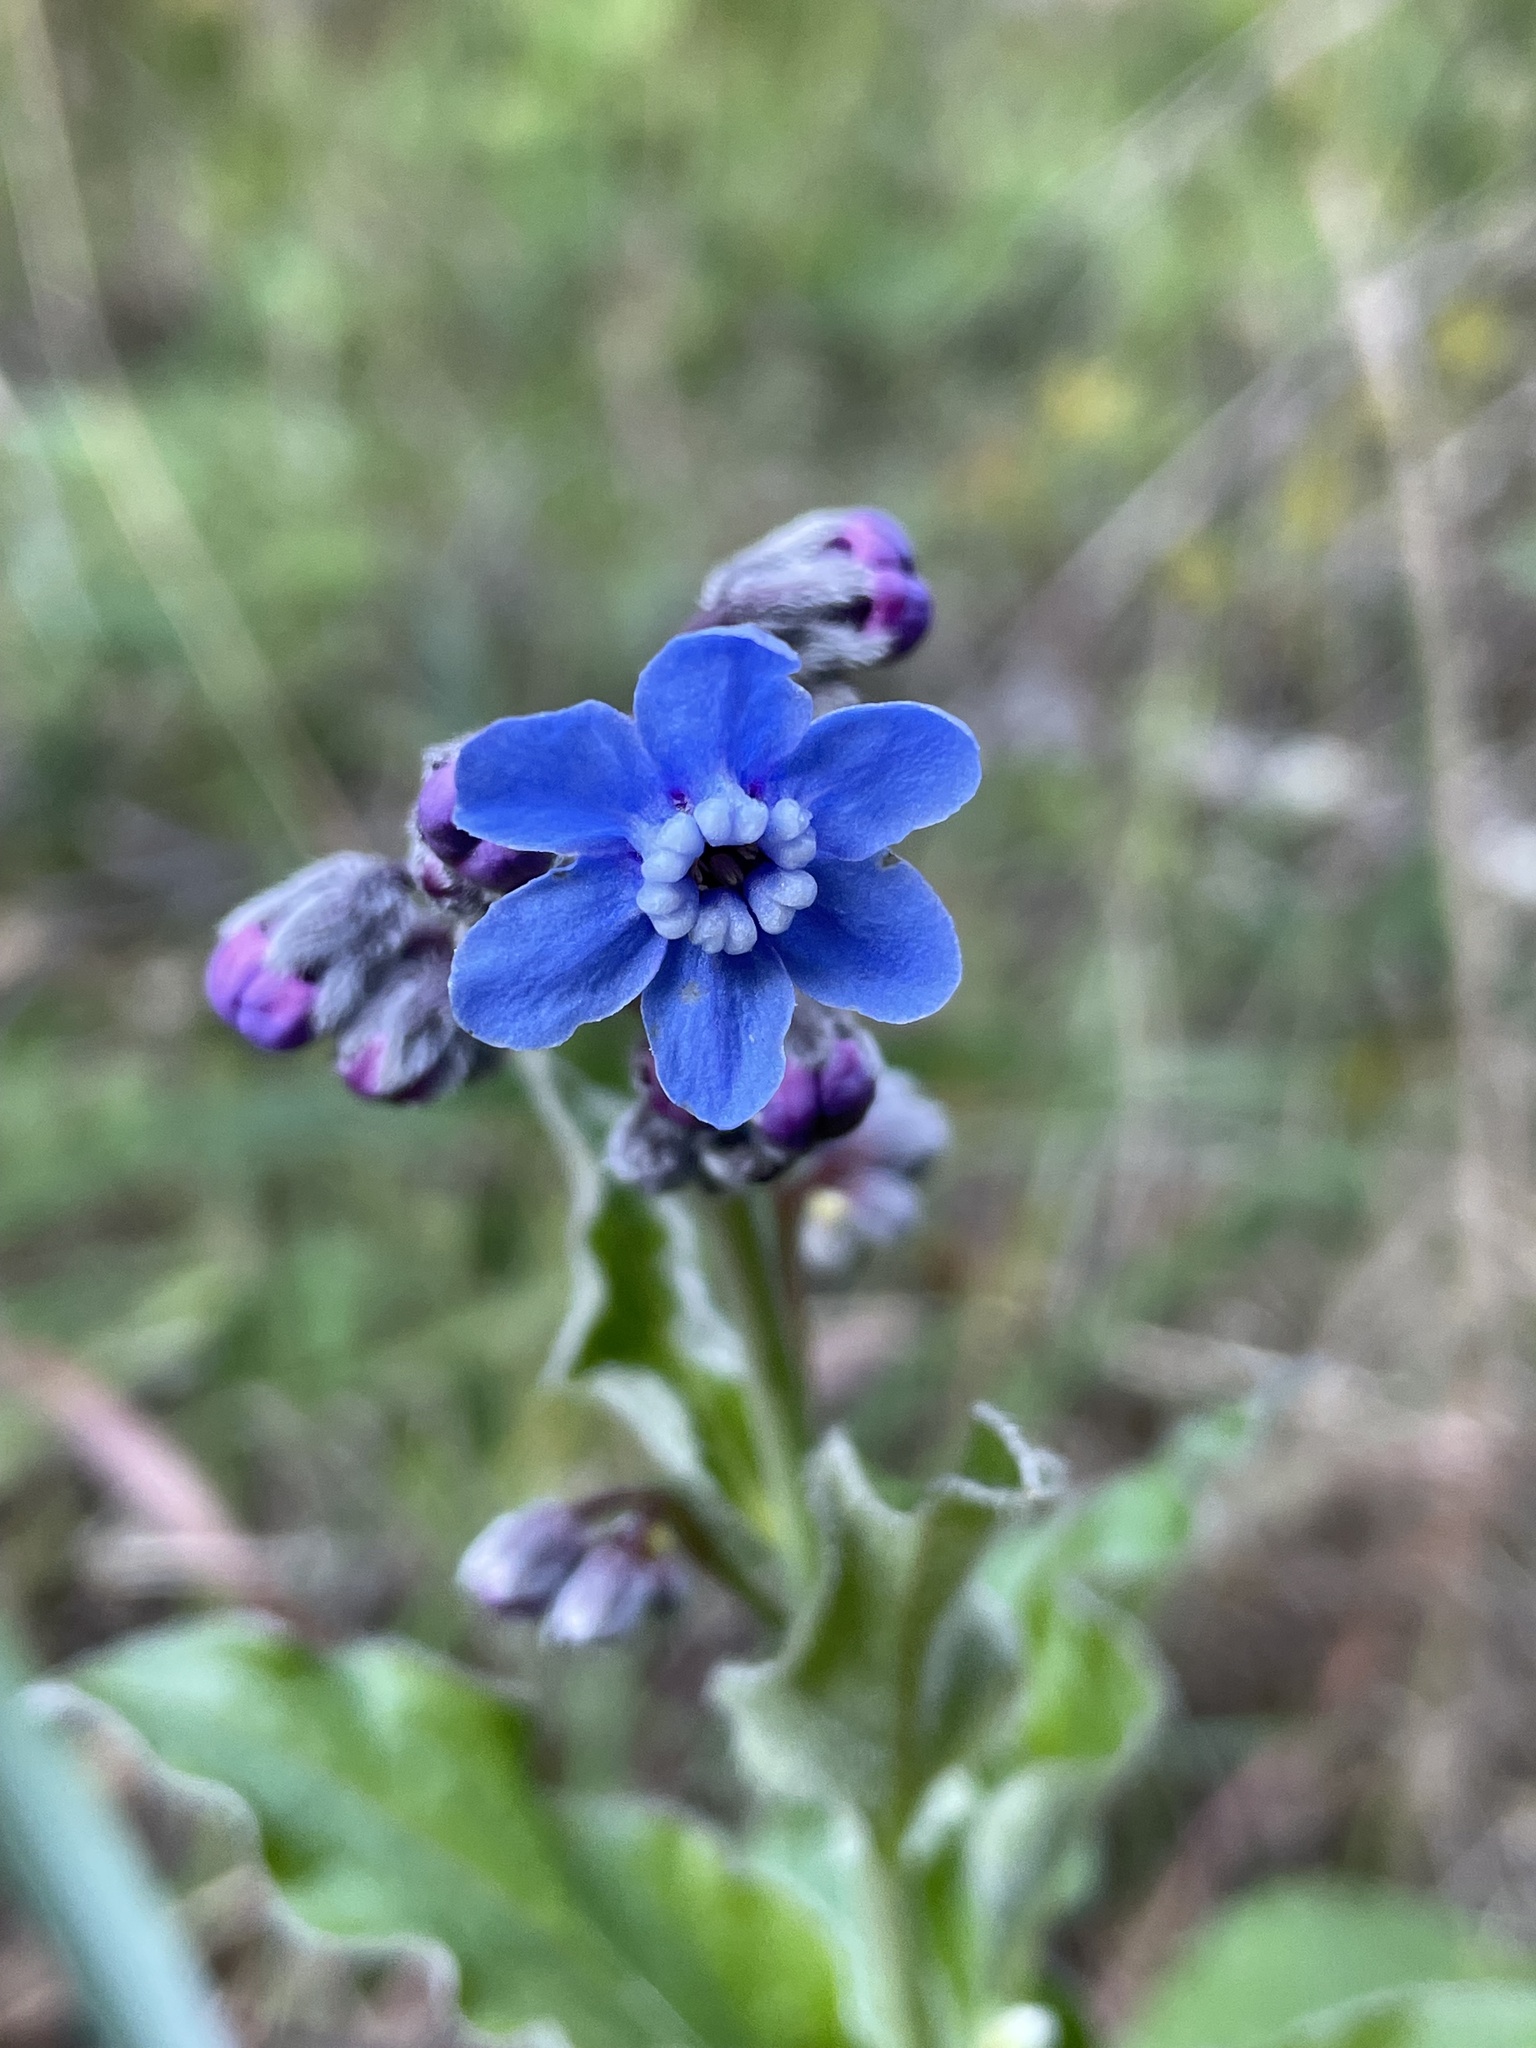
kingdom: Plantae
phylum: Tracheophyta
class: Magnoliopsida
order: Boraginales
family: Boraginaceae
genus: Adelinia
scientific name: Adelinia grande
